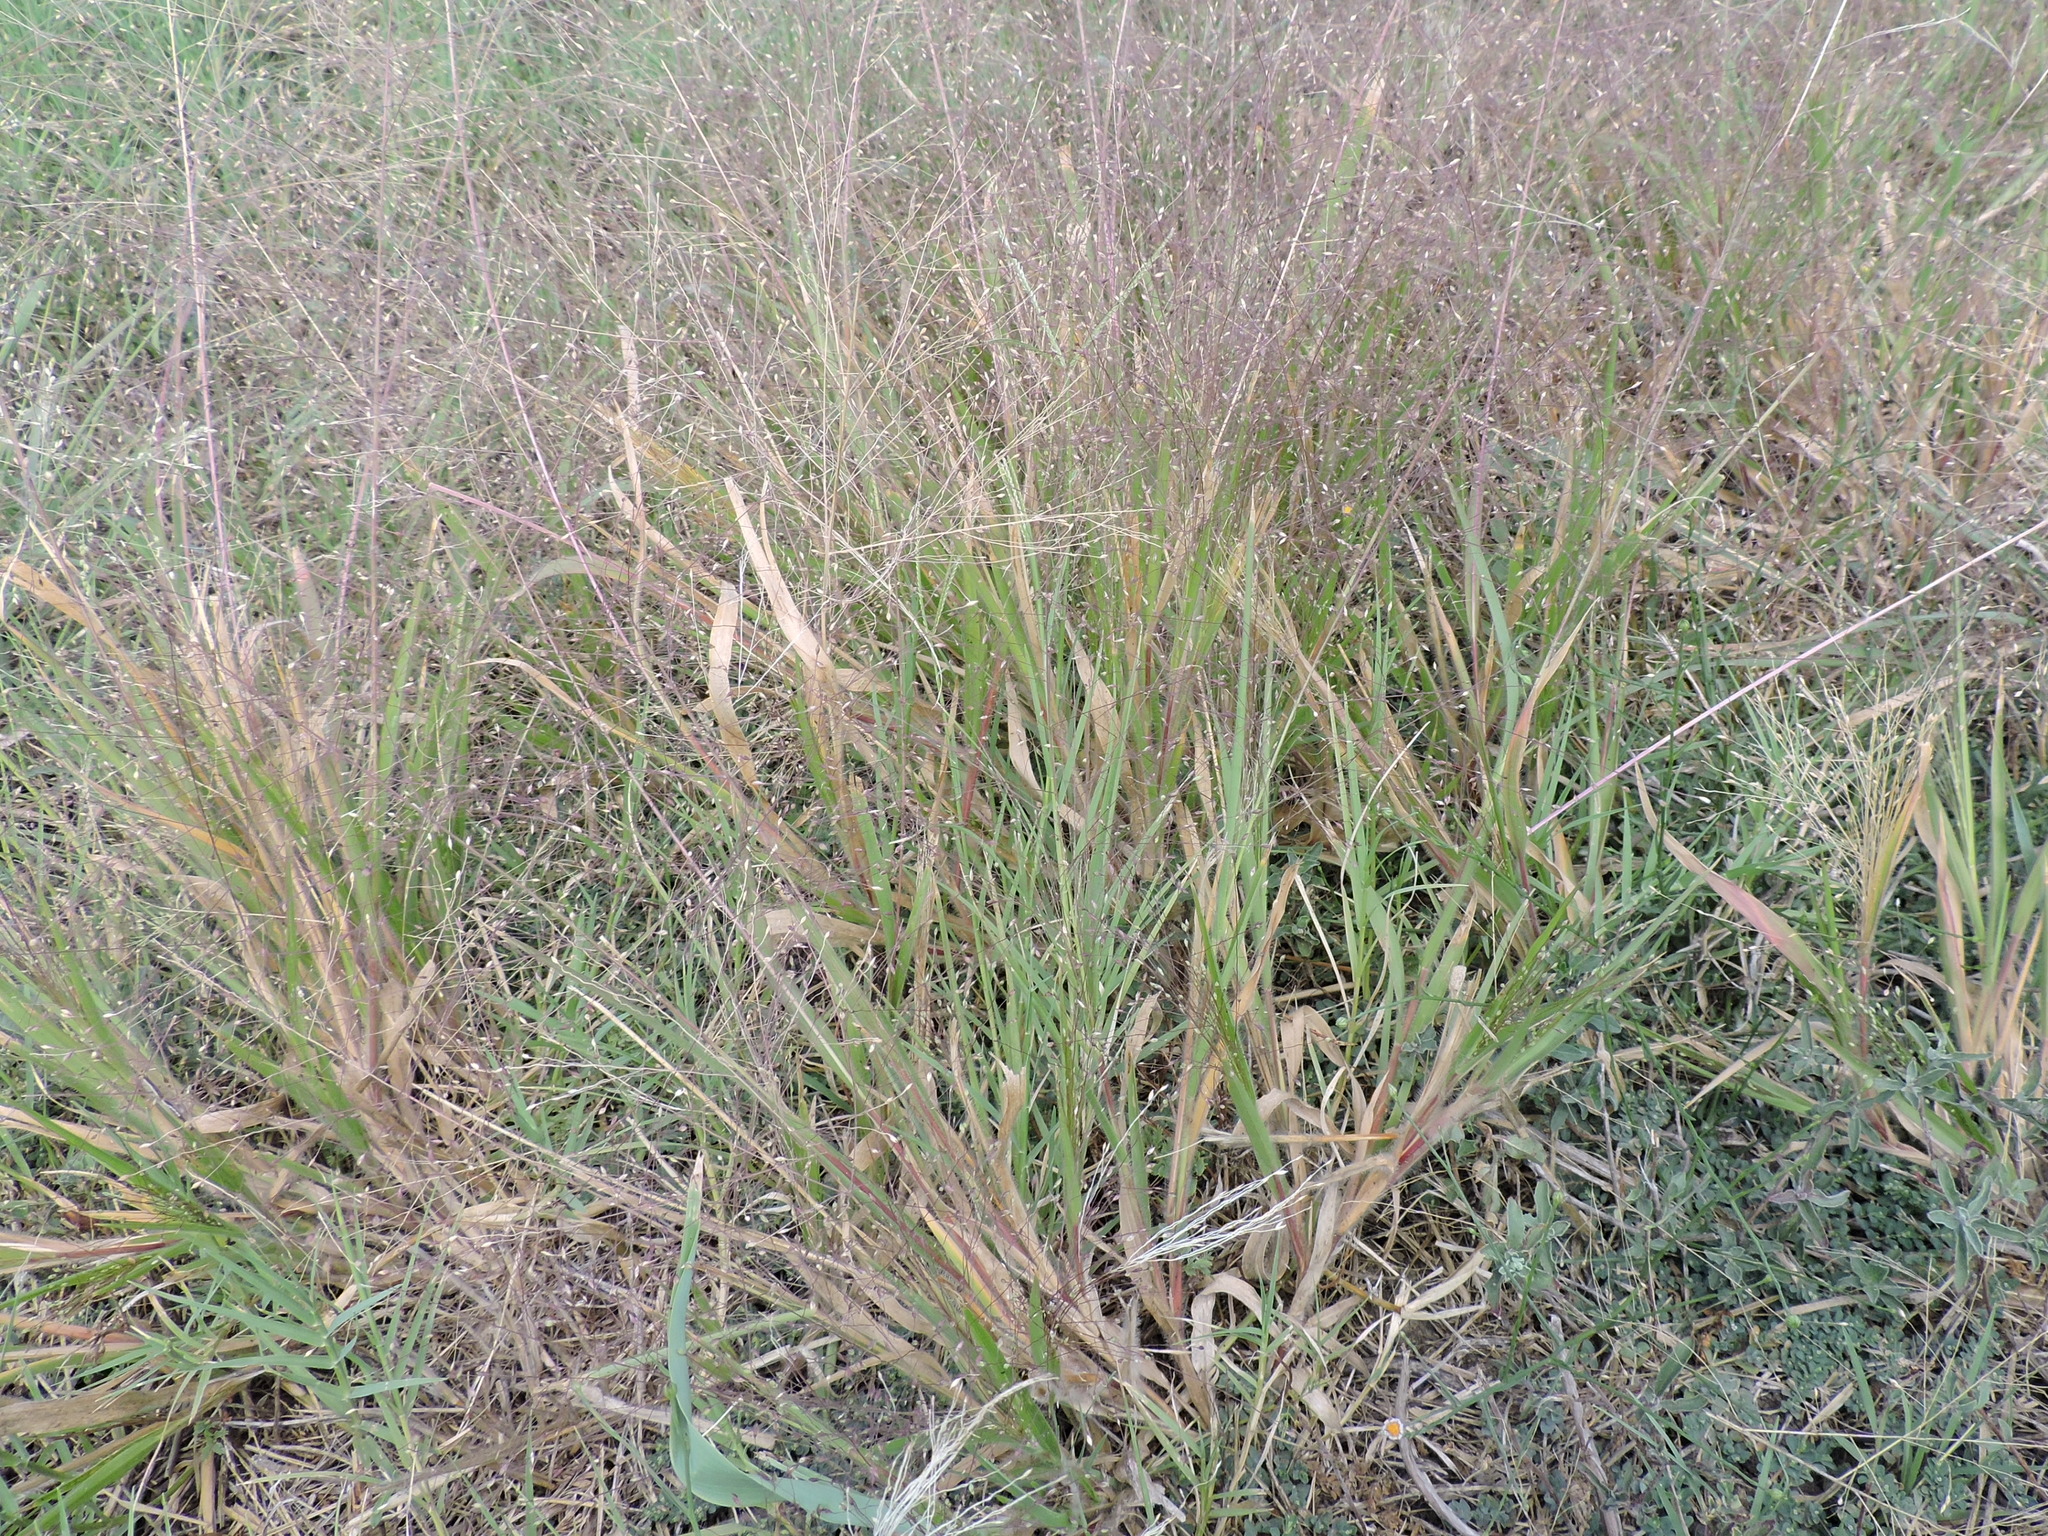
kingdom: Plantae
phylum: Tracheophyta
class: Liliopsida
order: Poales
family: Poaceae
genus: Panicum
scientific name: Panicum capillare
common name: Witch-grass
